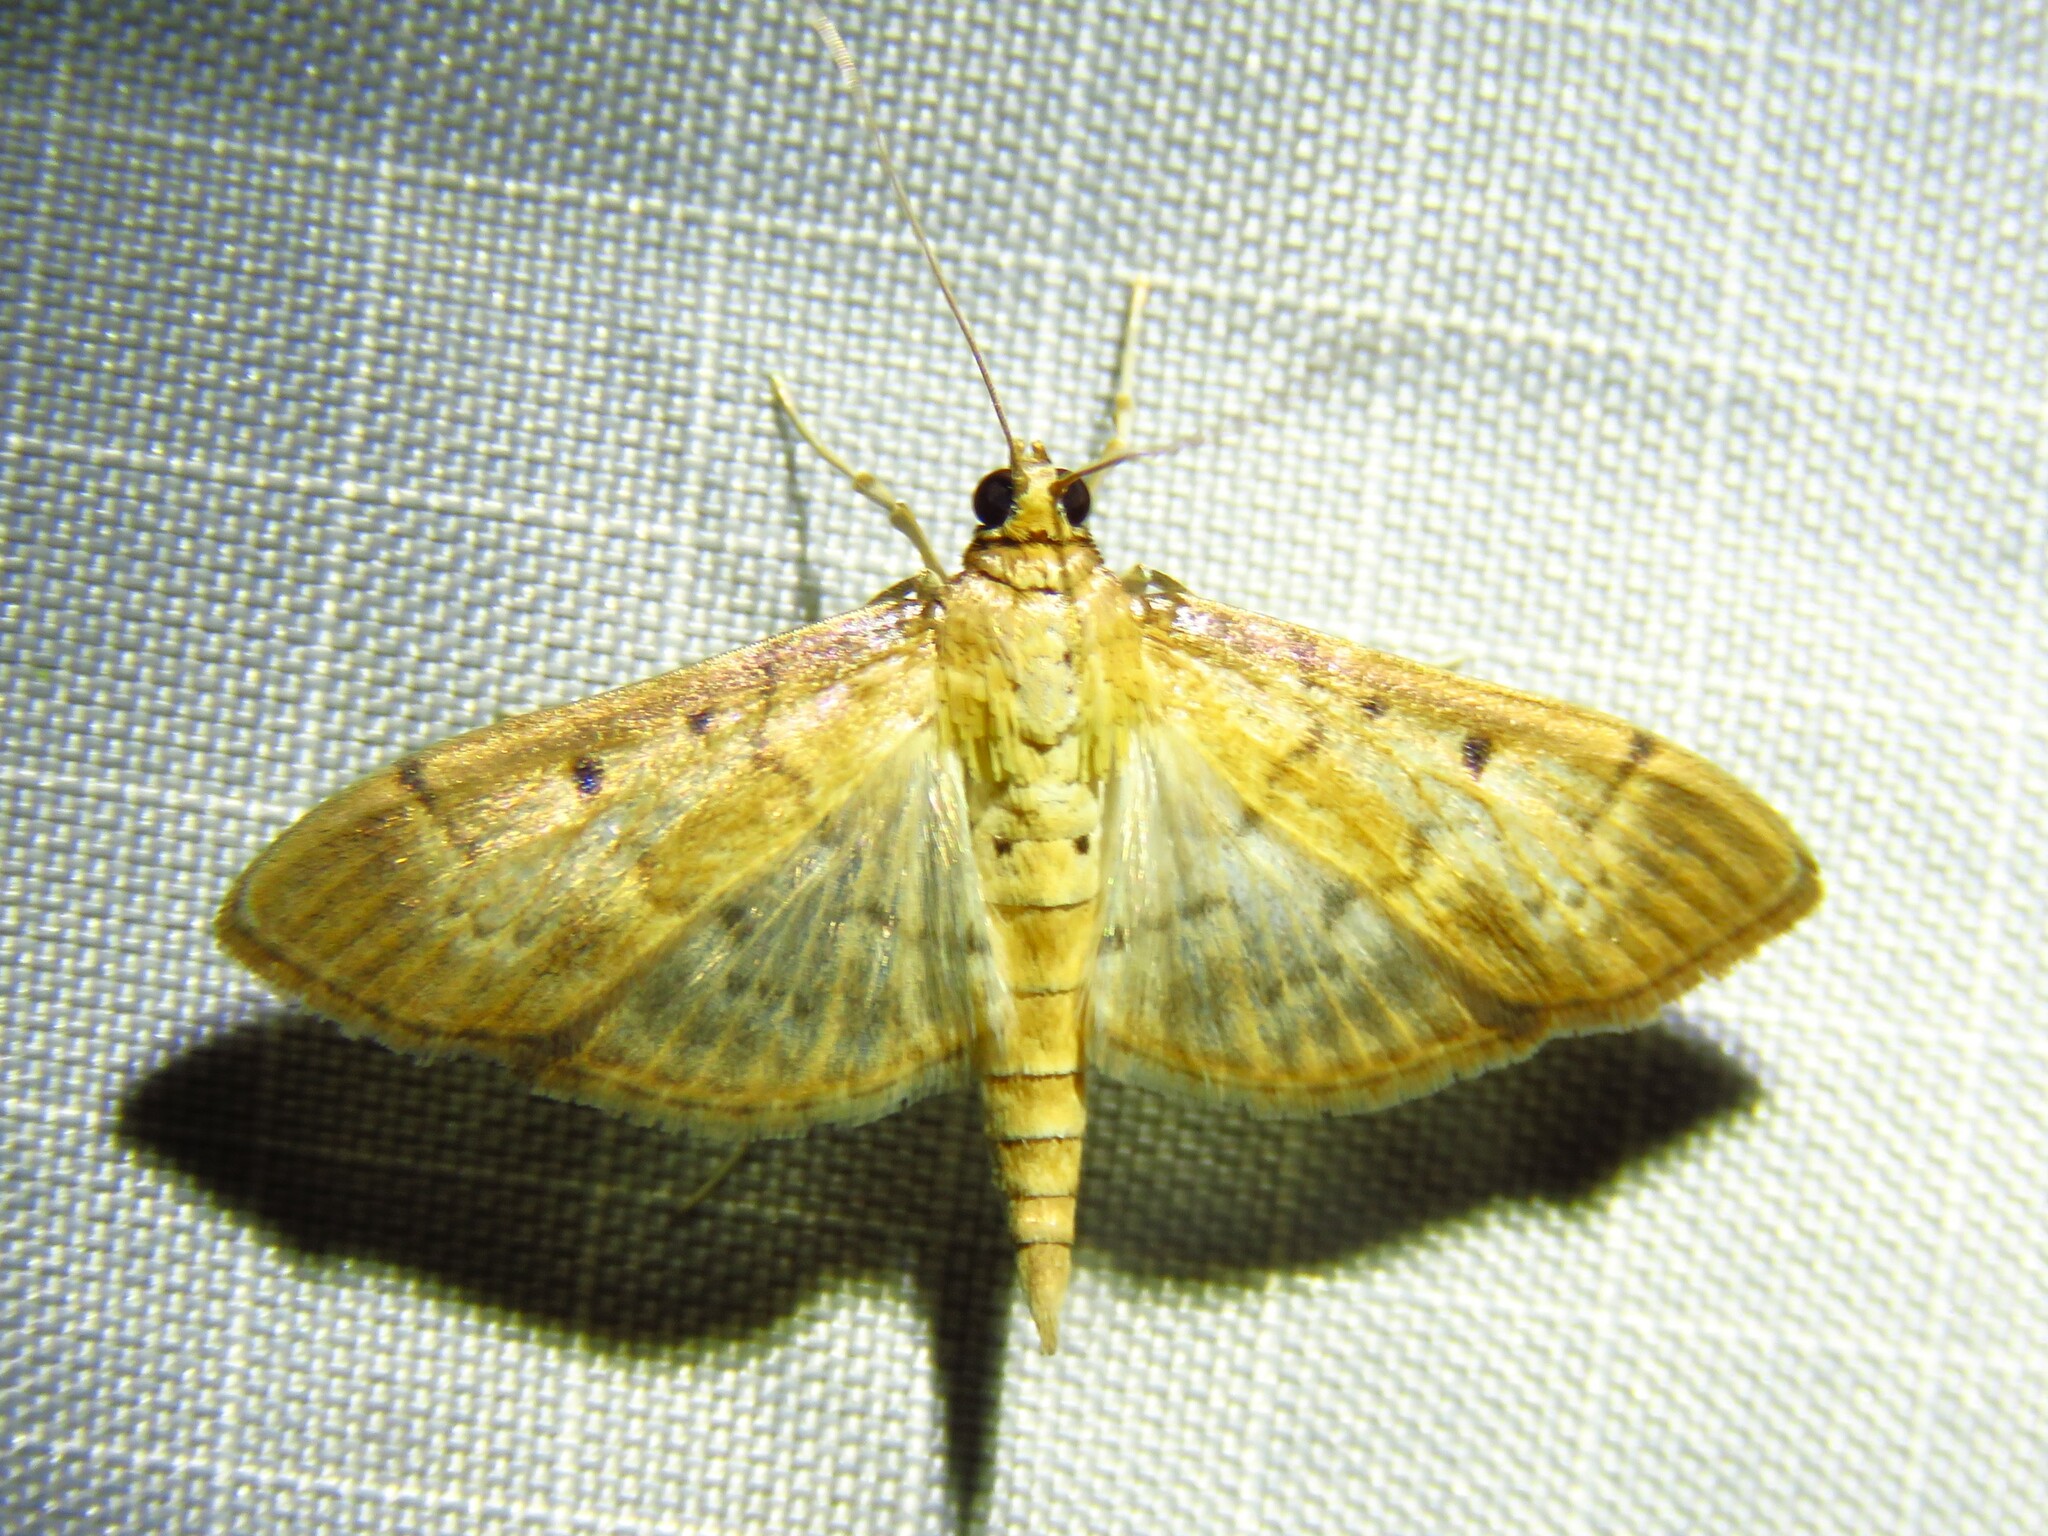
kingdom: Animalia
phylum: Arthropoda
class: Insecta
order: Lepidoptera
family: Crambidae
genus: Herpetogramma
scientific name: Herpetogramma bipunctalis
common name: Southern beet webworm
